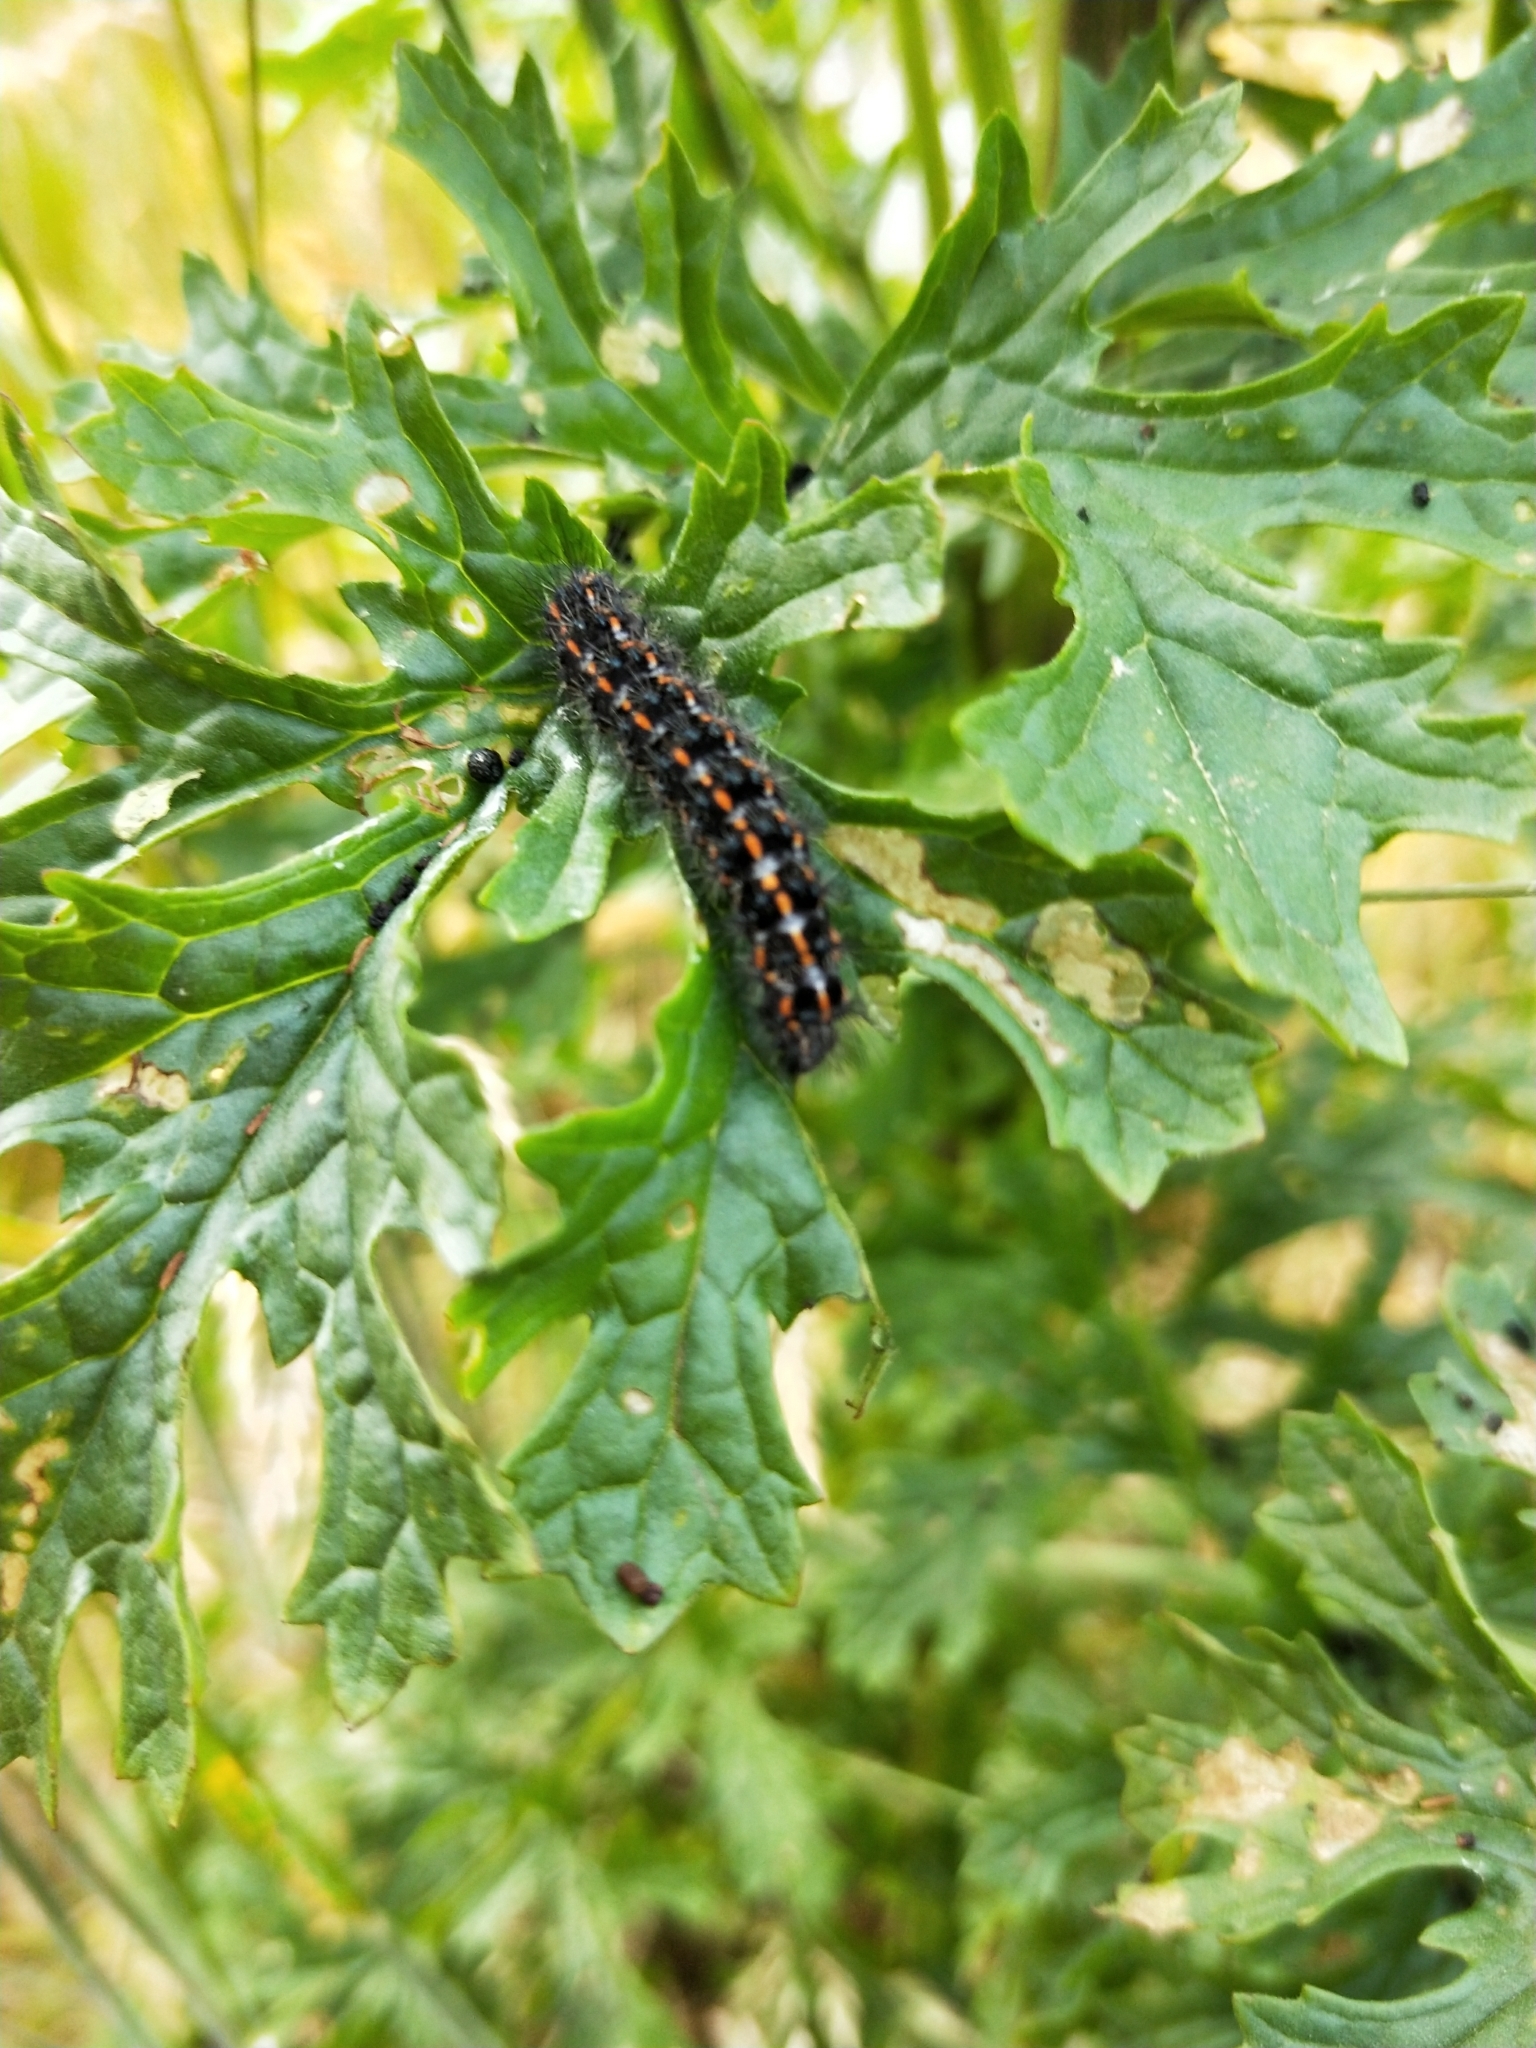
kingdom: Animalia
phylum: Arthropoda
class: Insecta
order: Lepidoptera
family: Erebidae
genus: Nyctemera
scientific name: Nyctemera annulatum
